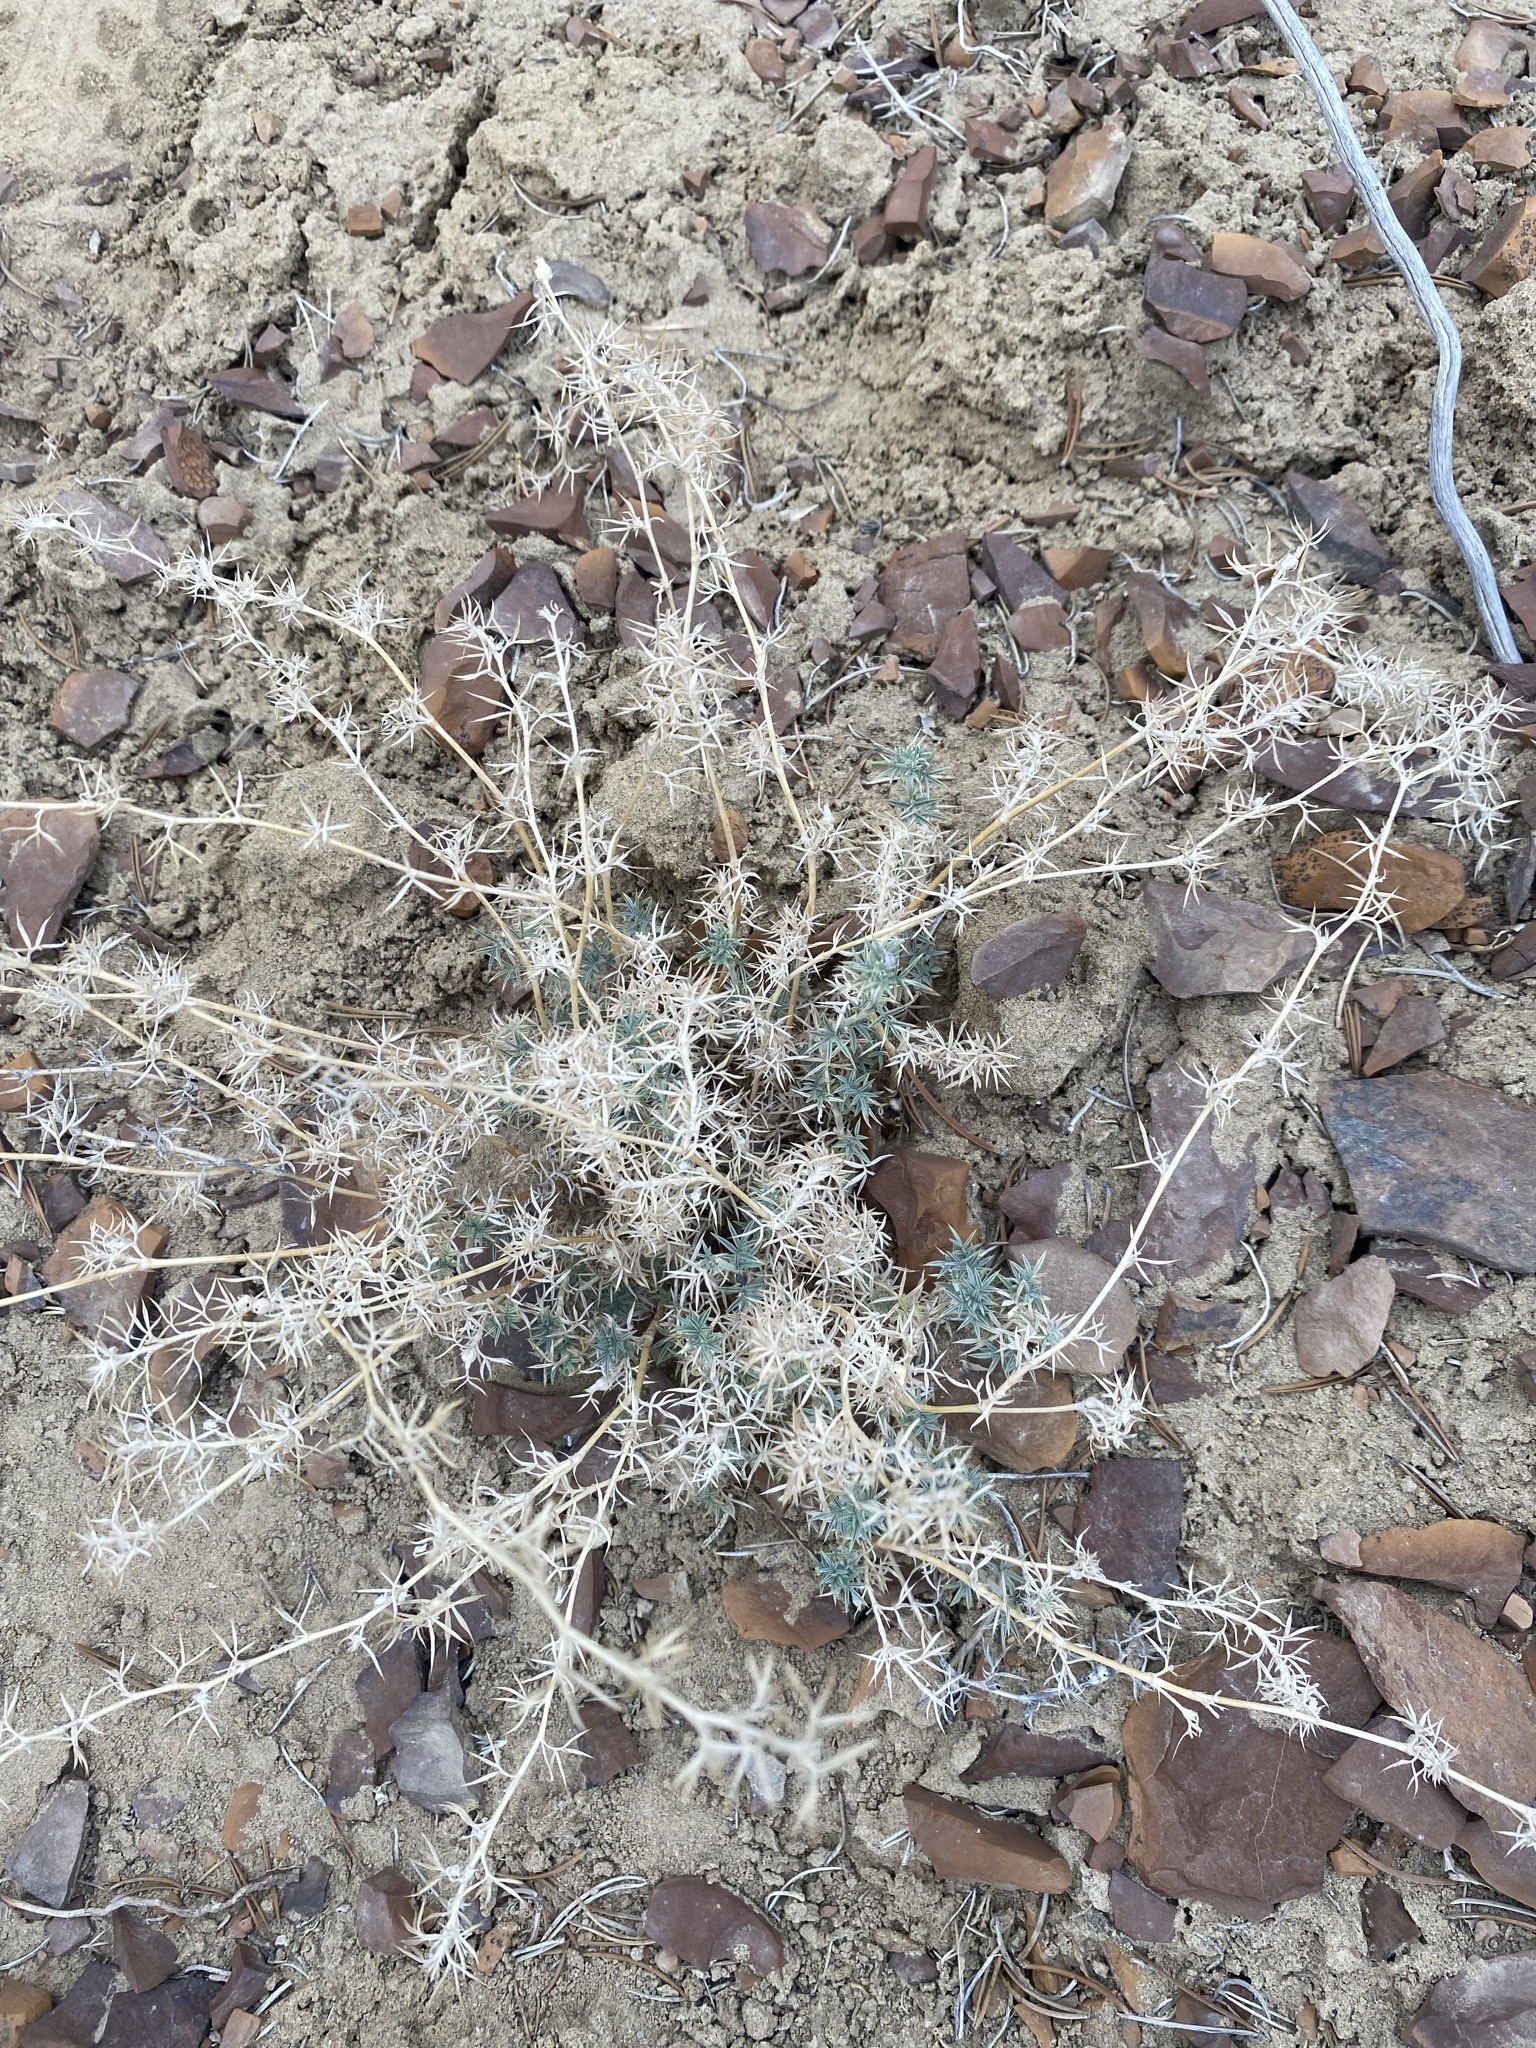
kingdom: Plantae
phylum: Tracheophyta
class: Magnoliopsida
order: Fabales
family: Fabaceae
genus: Astragalus
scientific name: Astragalus kentrophyta
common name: Prickly milk-vetch
